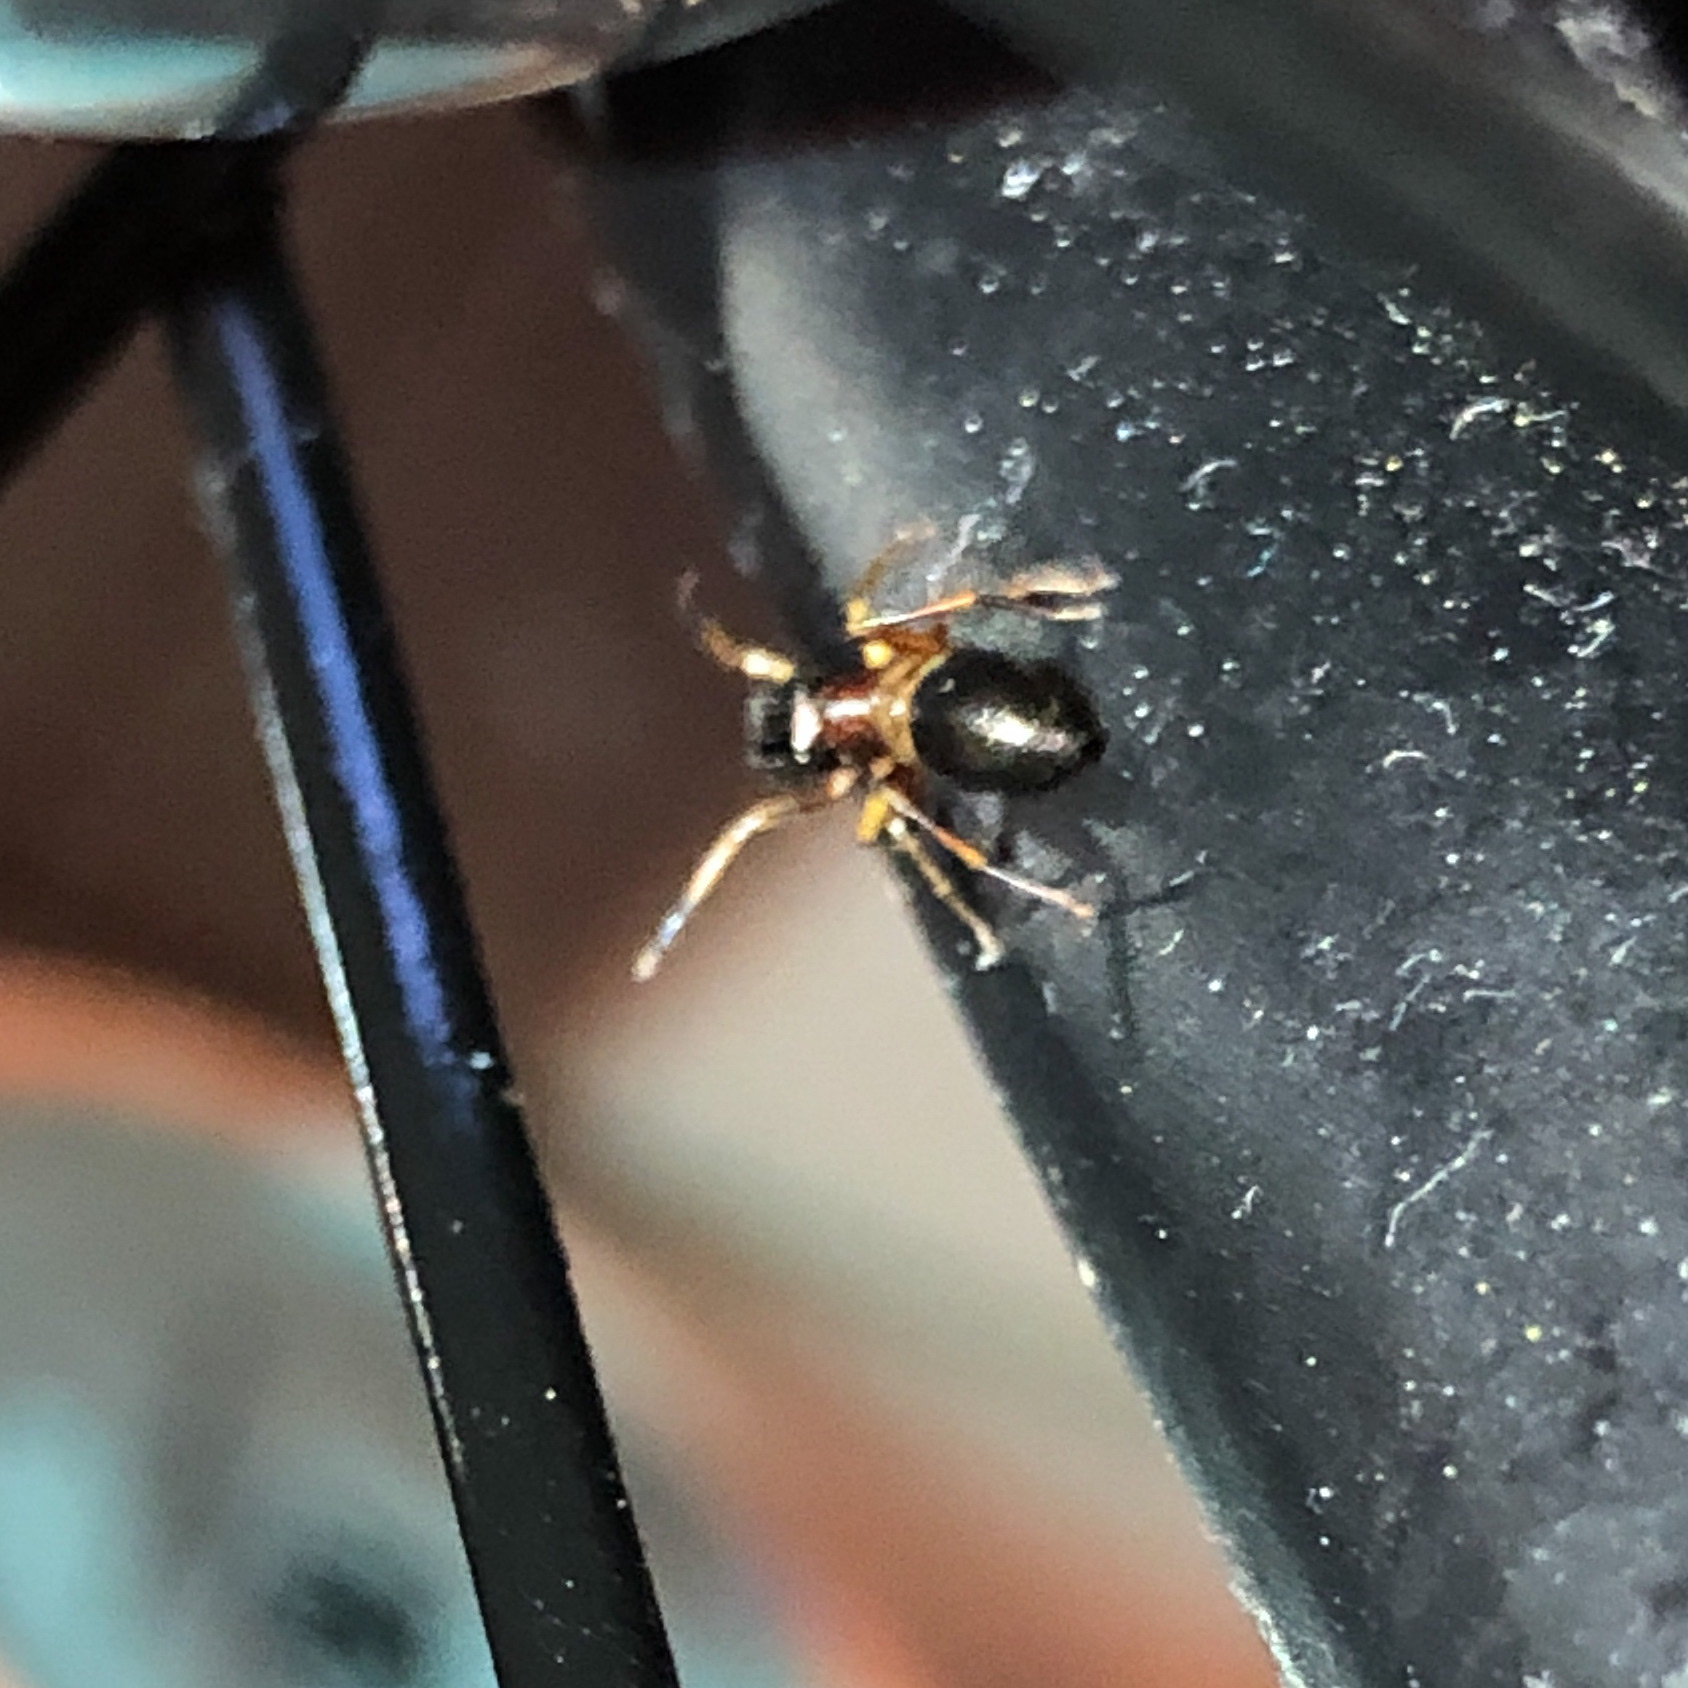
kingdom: Animalia
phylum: Arthropoda
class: Arachnida
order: Araneae
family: Salticidae
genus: Myrmarachne
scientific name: Myrmarachne formicaria
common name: Ant mimic jumping spider
